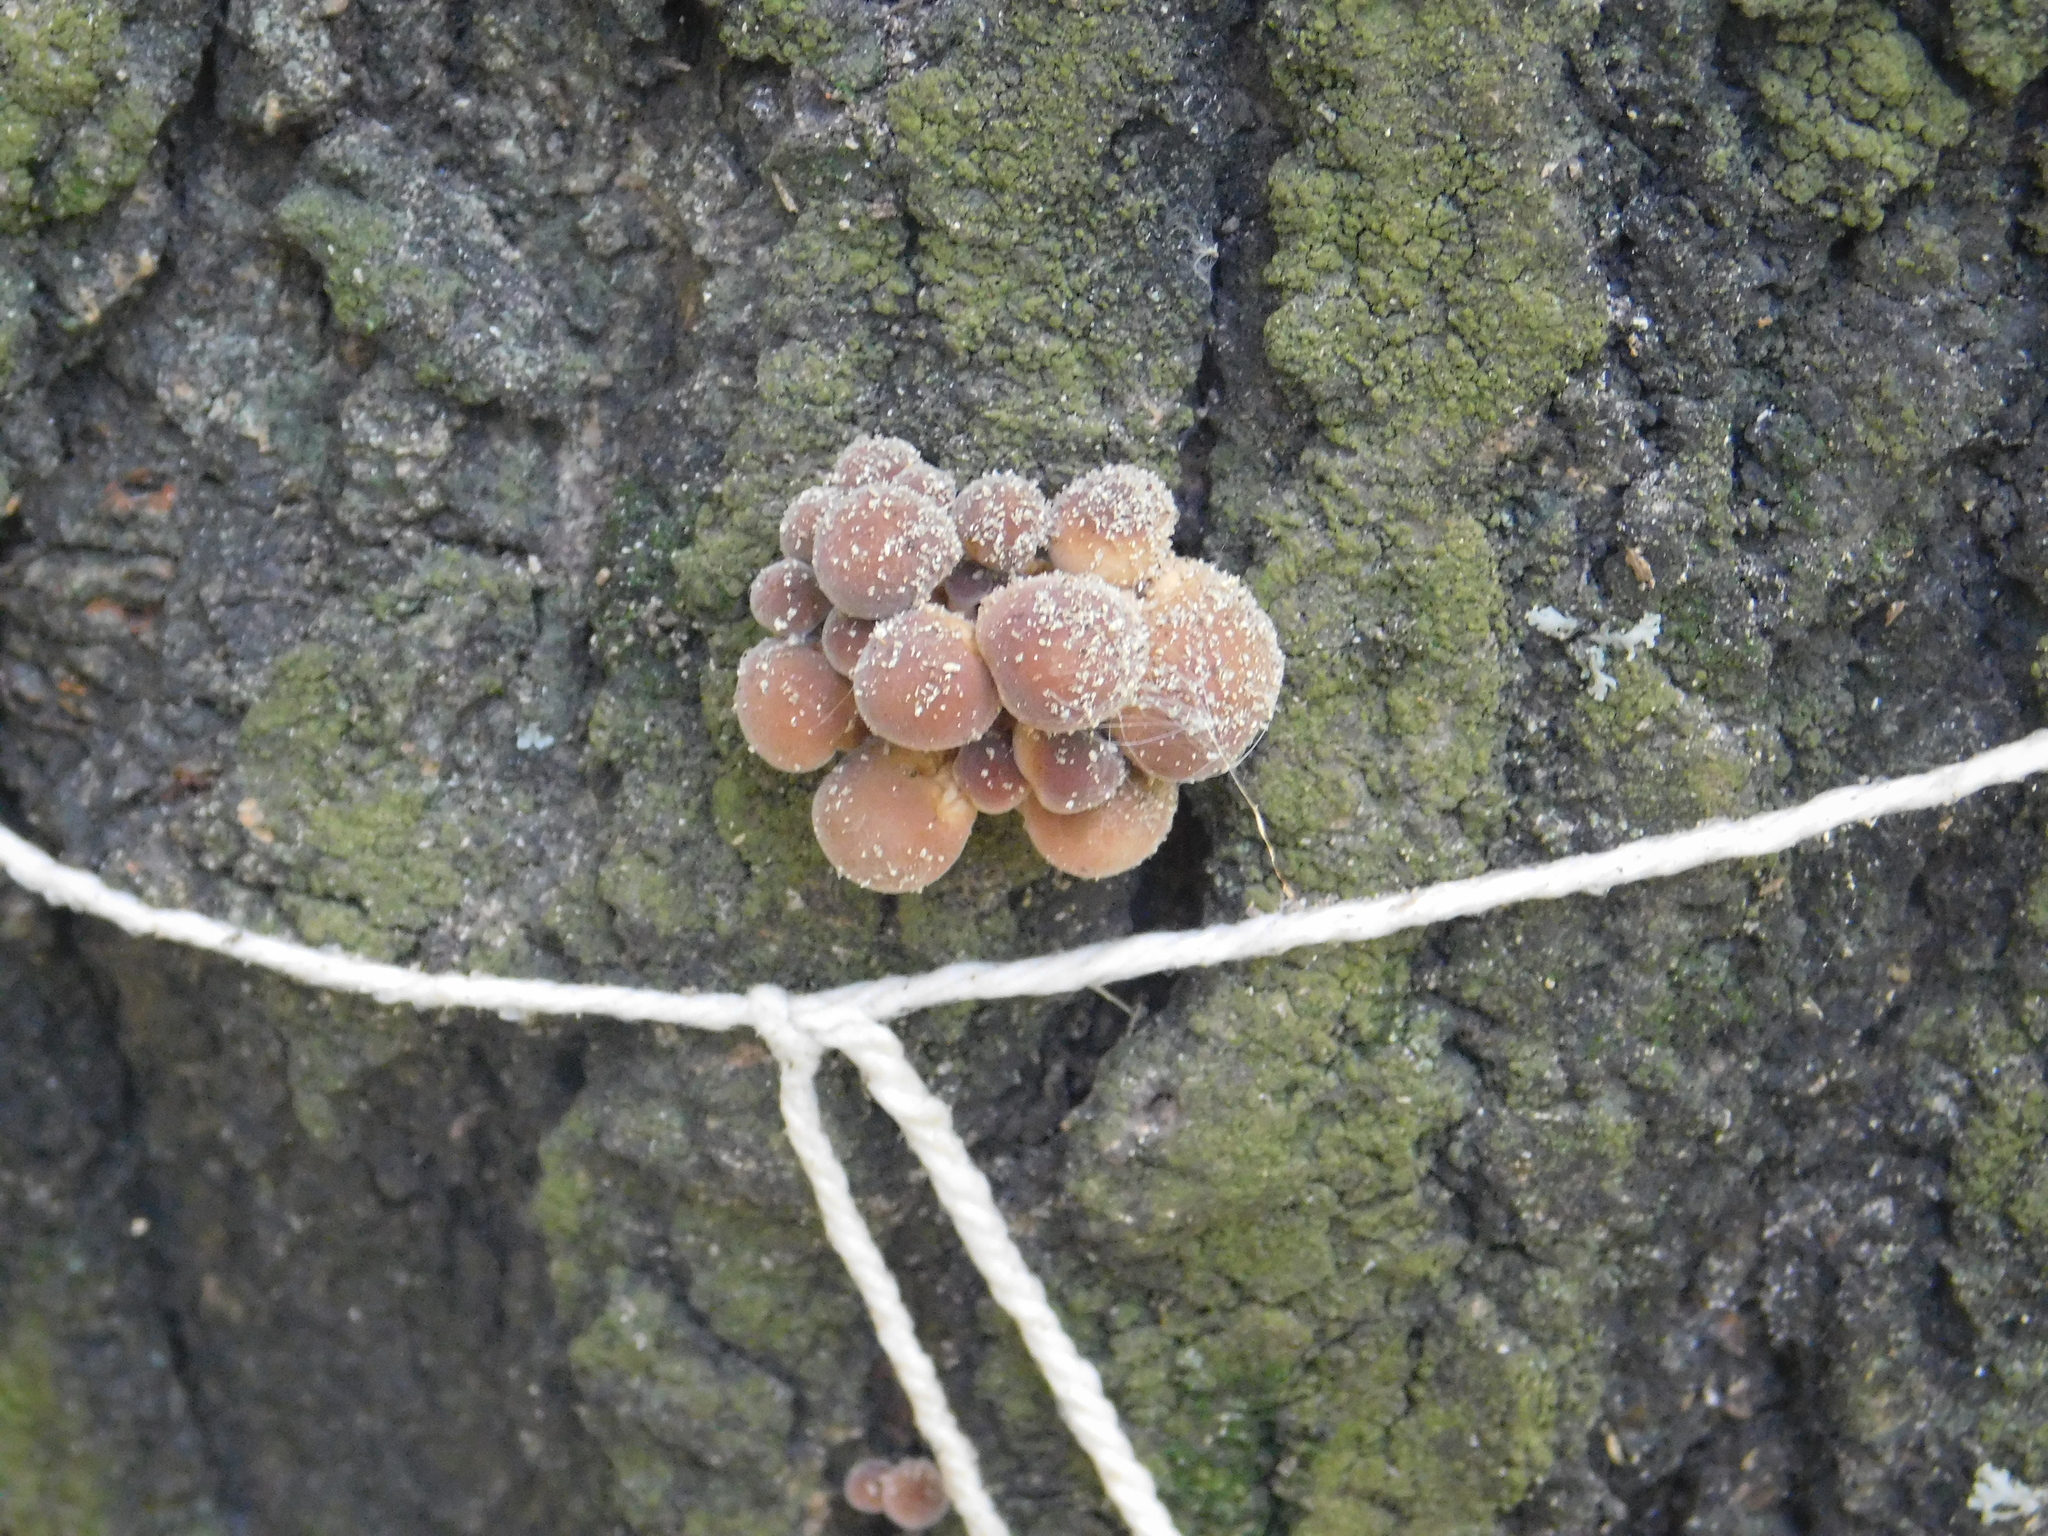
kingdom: Fungi
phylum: Basidiomycota
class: Agaricomycetes
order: Agaricales
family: Physalacriaceae
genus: Flammulina
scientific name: Flammulina velutipes
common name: Velvet shank
